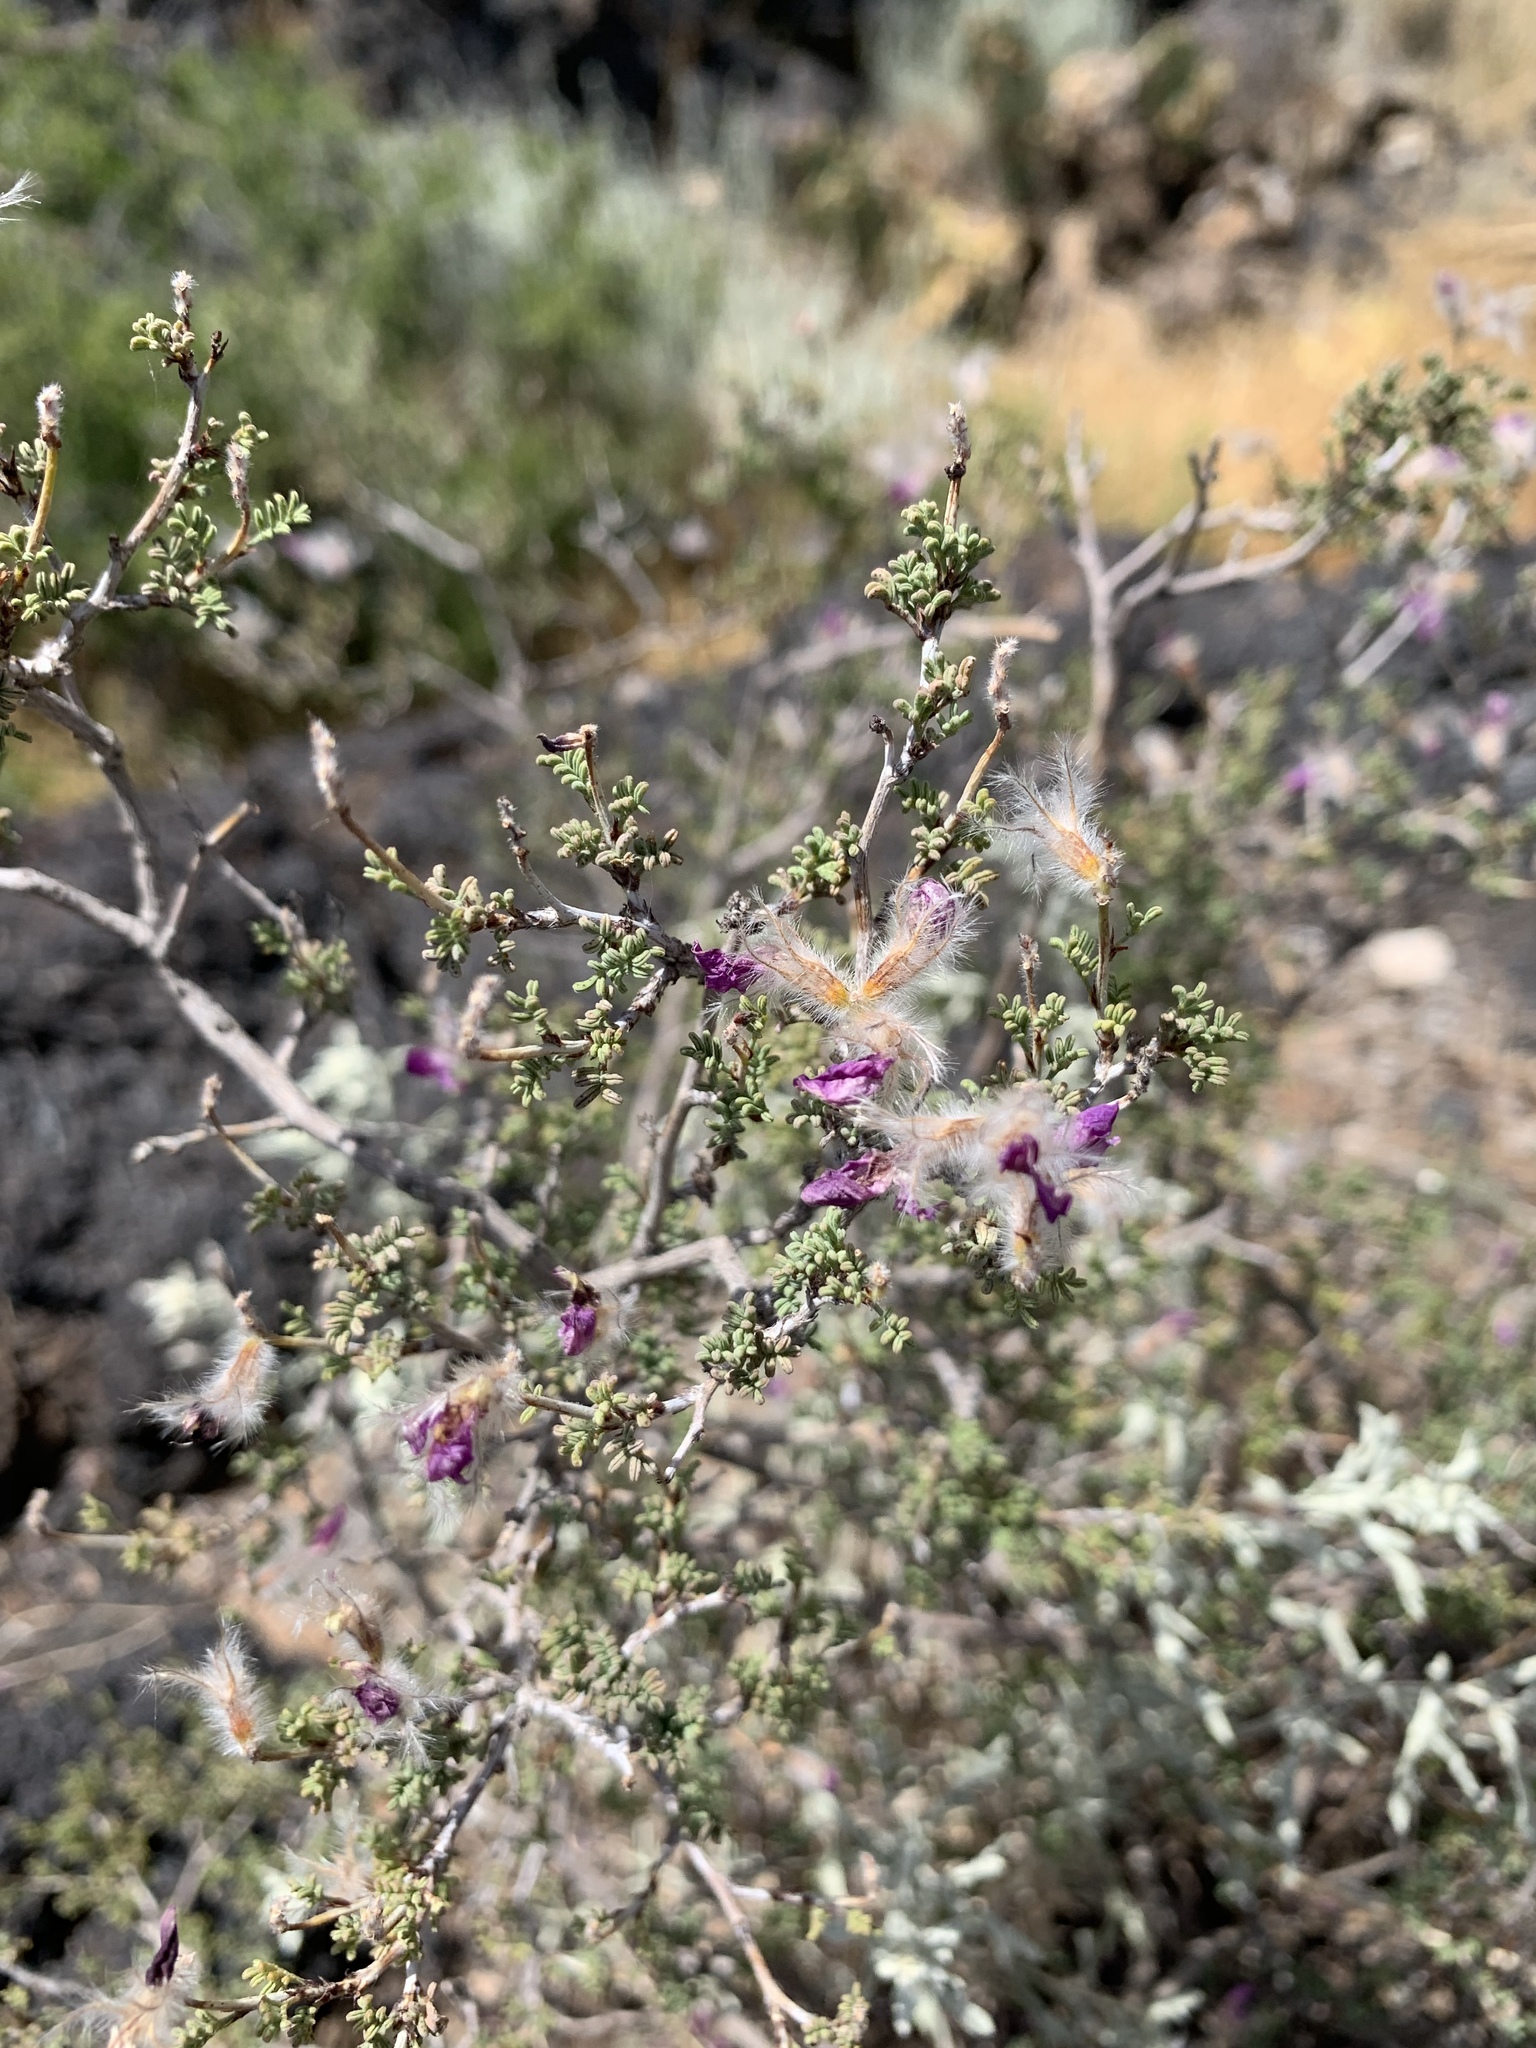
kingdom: Plantae
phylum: Tracheophyta
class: Magnoliopsida
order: Fabales
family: Fabaceae
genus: Dalea
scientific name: Dalea formosa
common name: Feather-plume dalea
